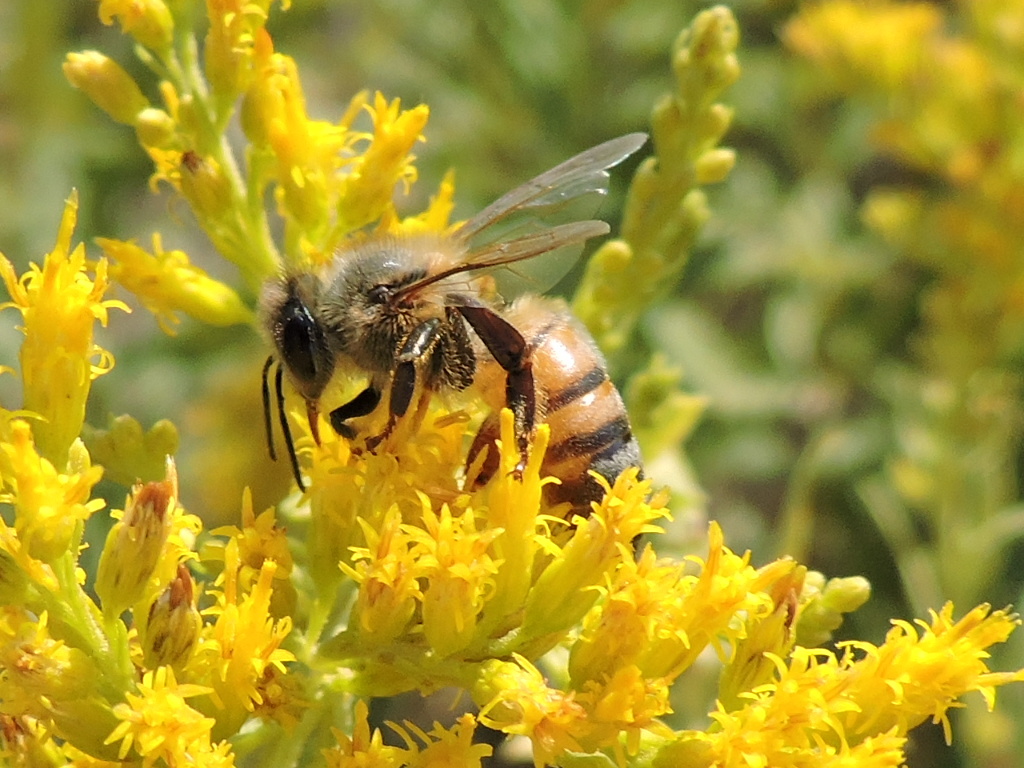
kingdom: Animalia
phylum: Arthropoda
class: Insecta
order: Hymenoptera
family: Apidae
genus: Apis
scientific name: Apis mellifera
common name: Honey bee
